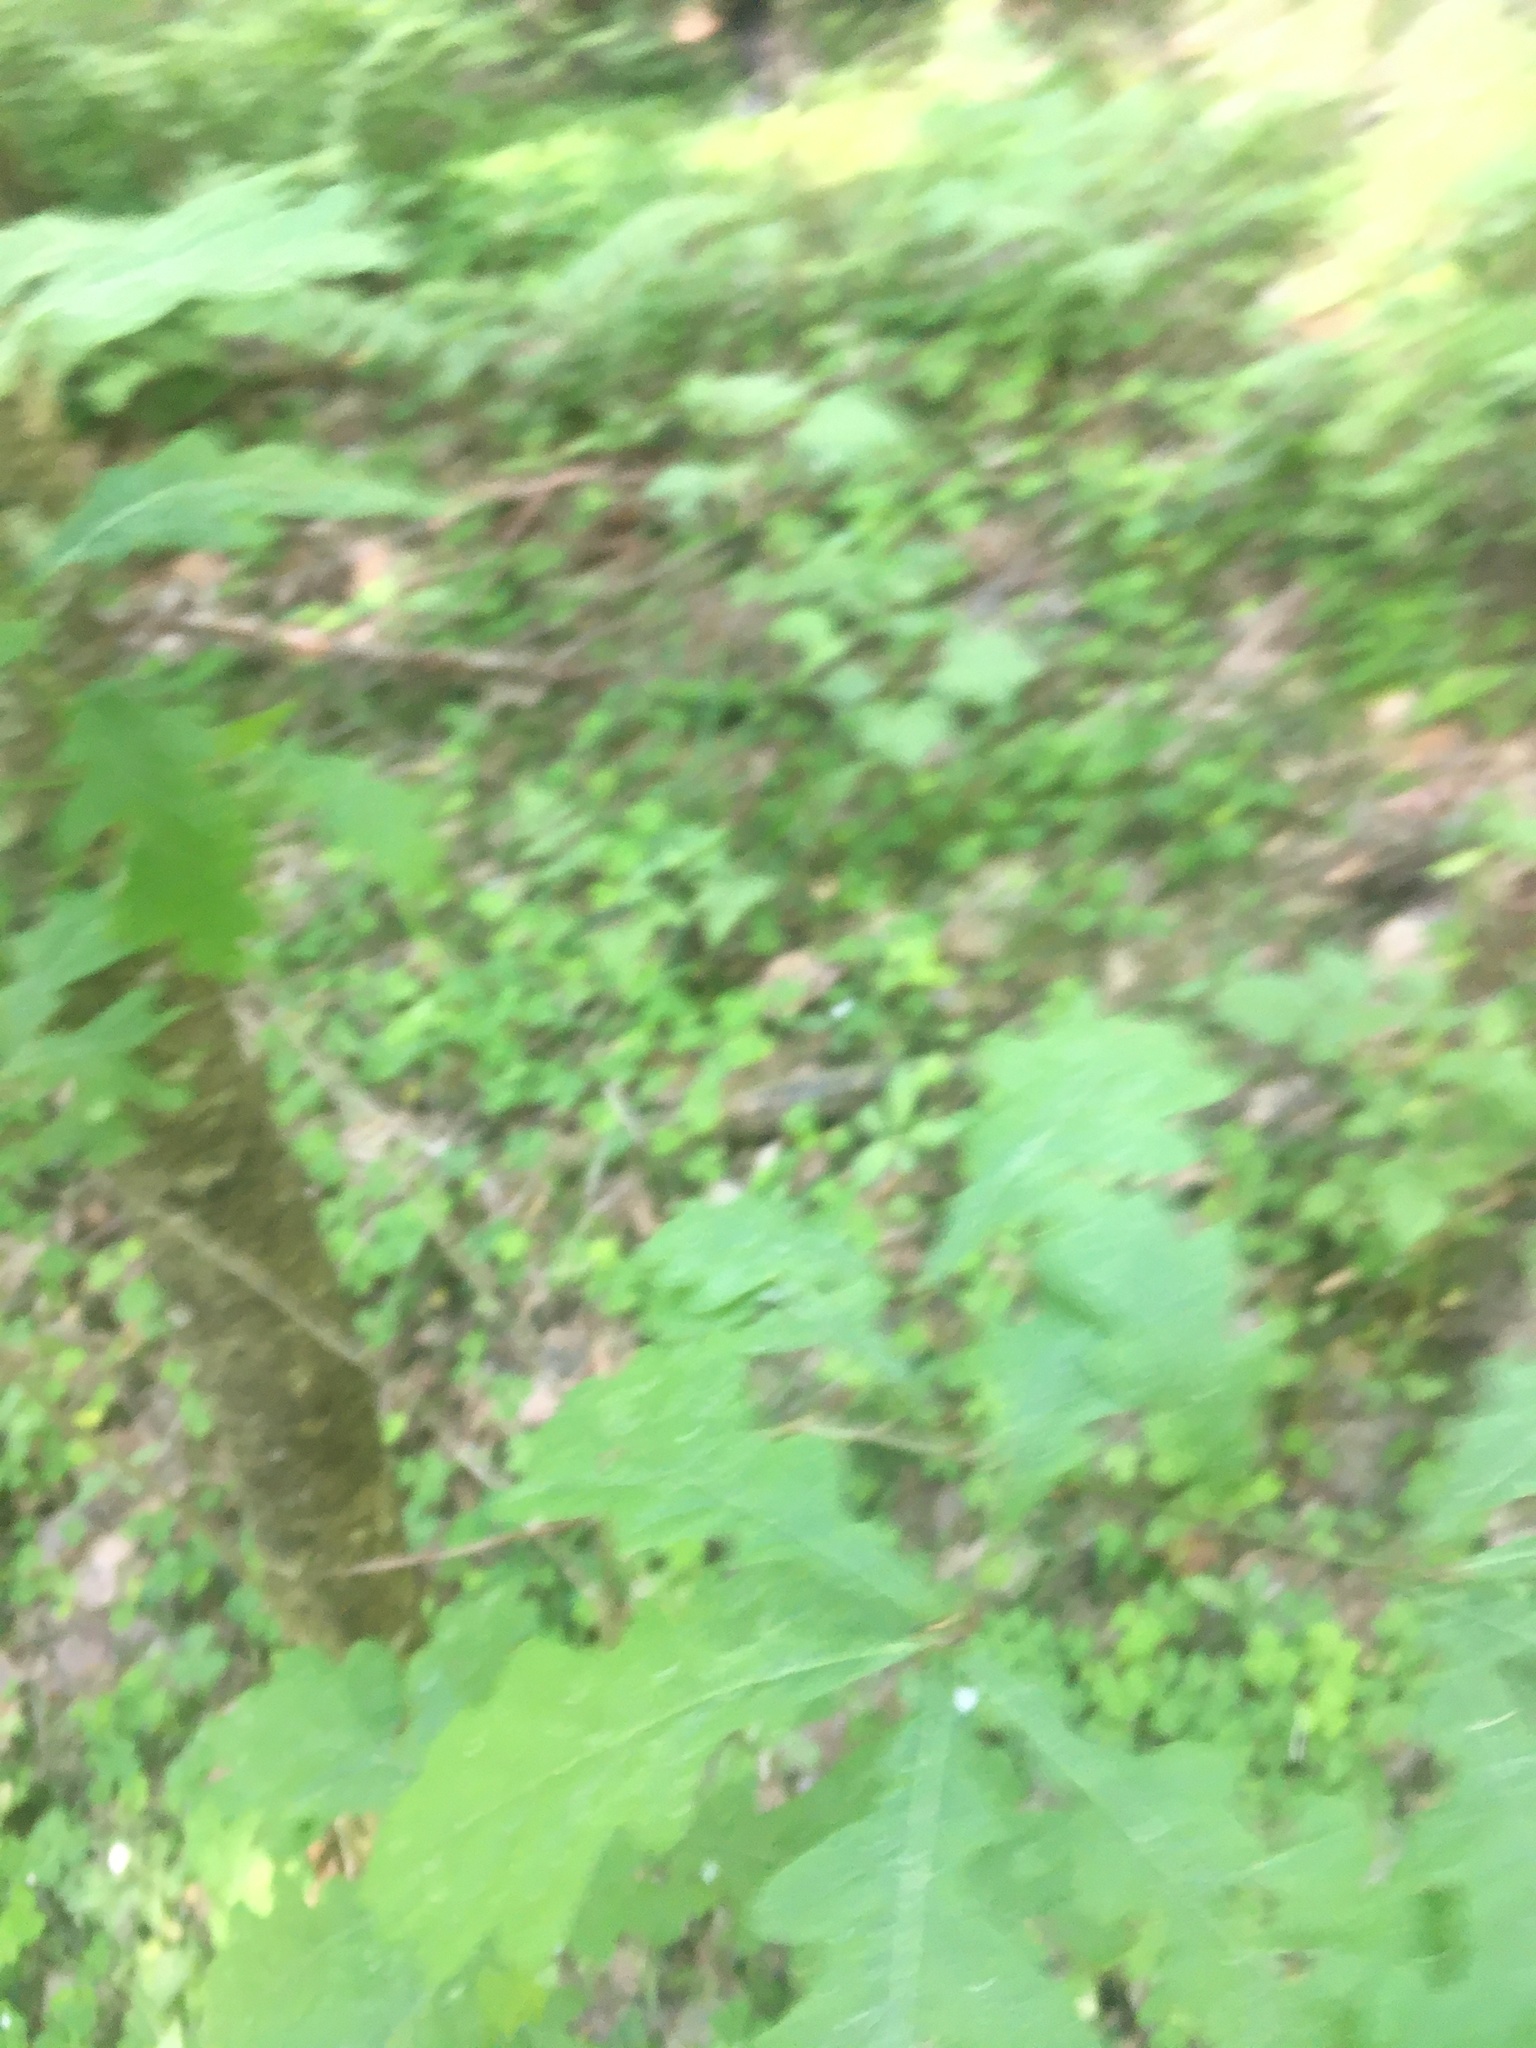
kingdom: Plantae
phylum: Tracheophyta
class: Magnoliopsida
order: Fagales
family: Fagaceae
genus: Quercus
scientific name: Quercus robur
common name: Pedunculate oak
